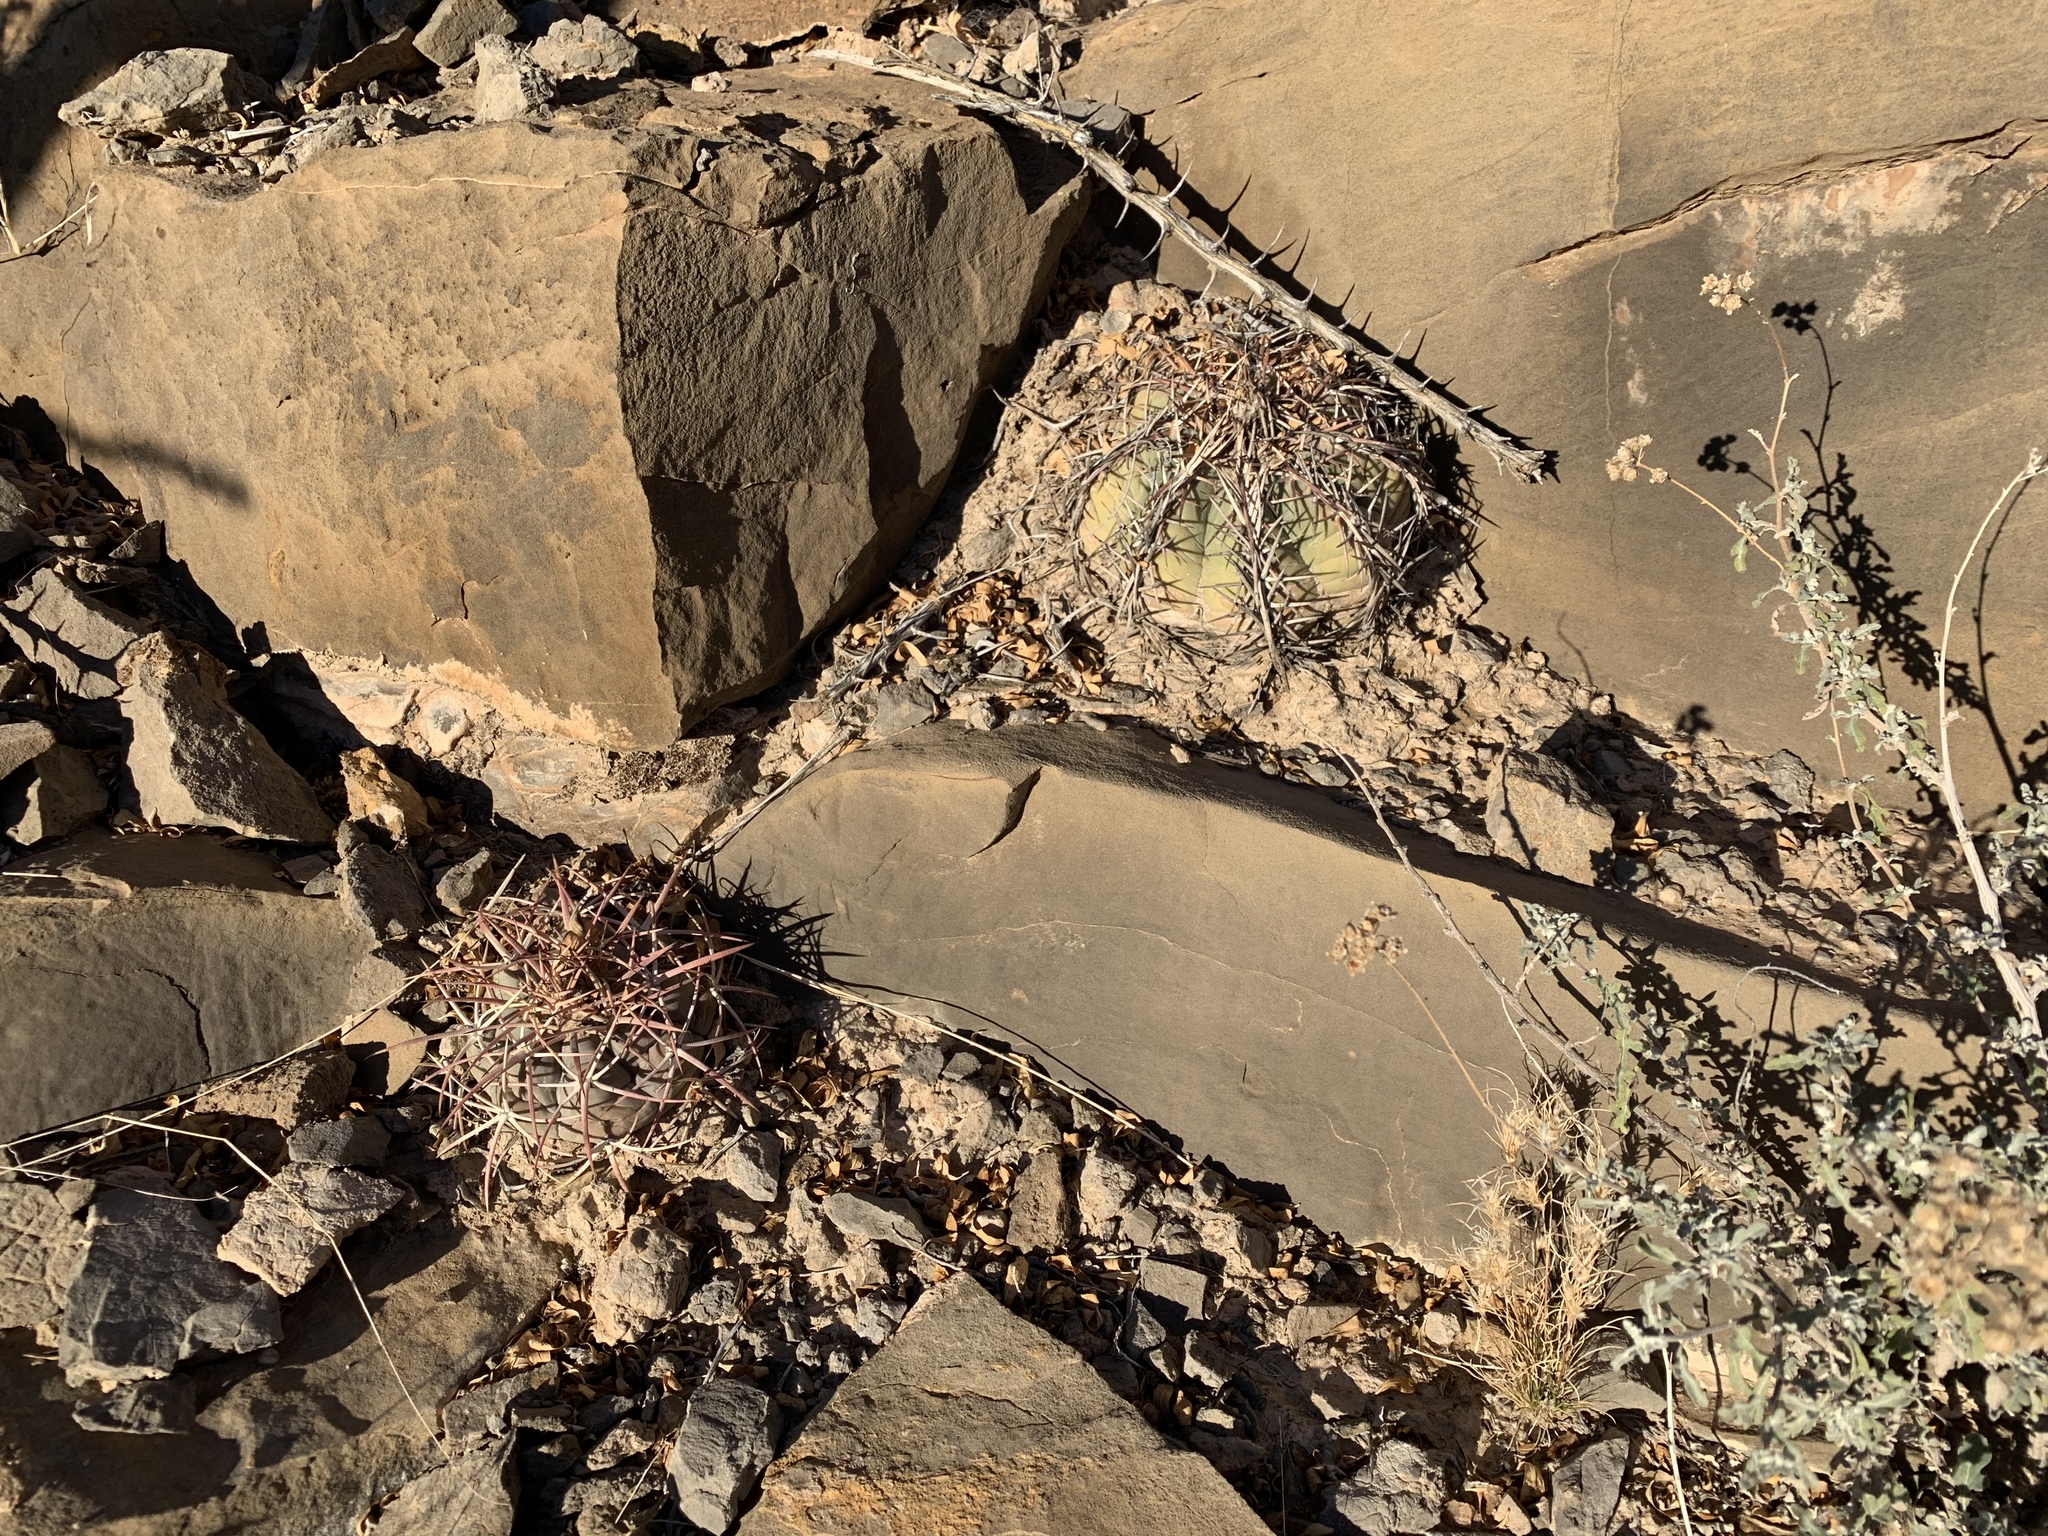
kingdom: Plantae
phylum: Tracheophyta
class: Magnoliopsida
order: Caryophyllales
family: Cactaceae
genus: Echinocactus
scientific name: Echinocactus horizonthalonius
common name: Devilshead
